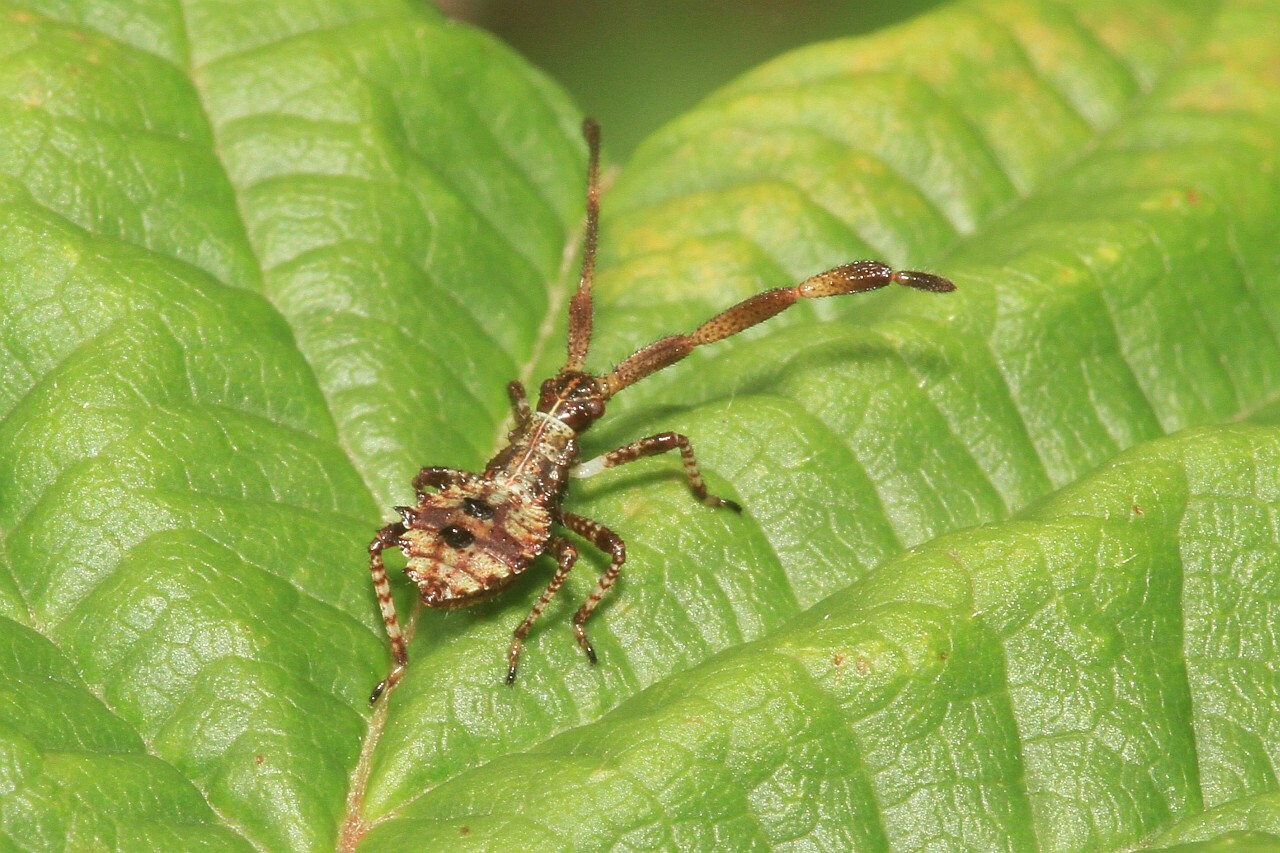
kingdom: Animalia
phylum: Arthropoda
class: Insecta
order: Hemiptera
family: Coreidae
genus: Coreus
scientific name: Coreus marginatus
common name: Dock bug
